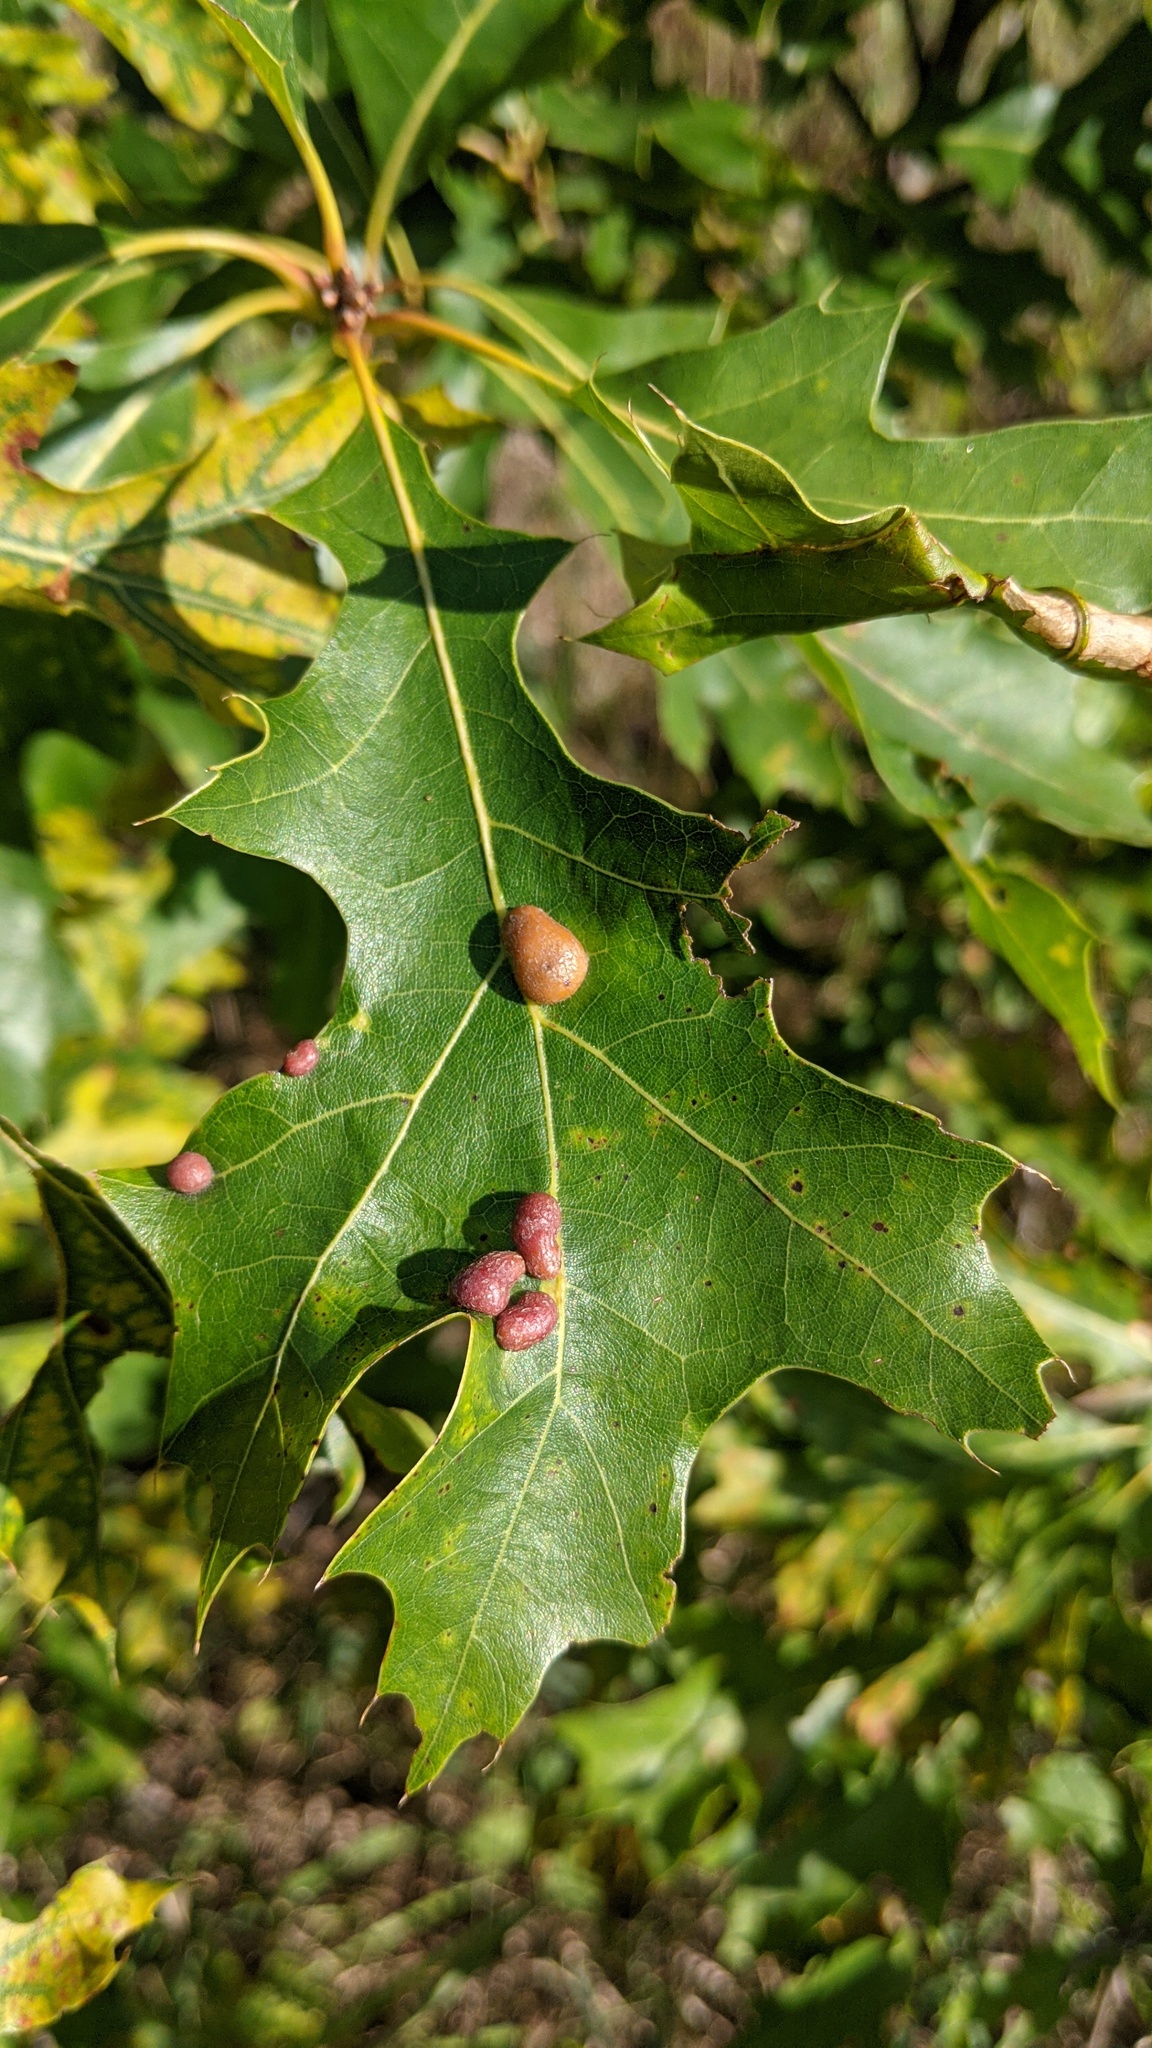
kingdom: Animalia
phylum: Arthropoda
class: Insecta
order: Diptera
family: Cecidomyiidae
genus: Polystepha
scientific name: Polystepha pilulae
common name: Oak leaf gall midge
